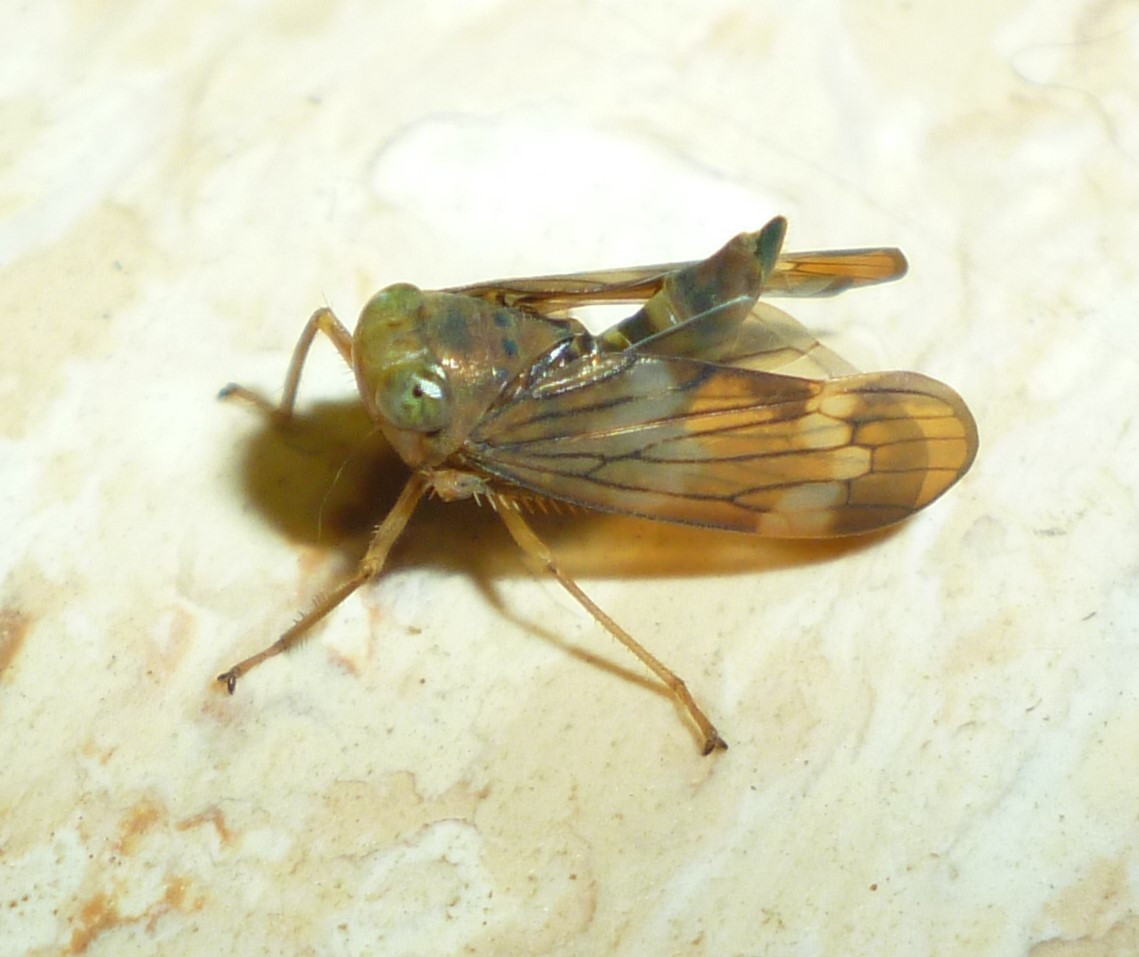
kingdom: Animalia
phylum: Arthropoda
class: Insecta
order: Hemiptera
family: Cicadellidae
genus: Jikradia
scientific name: Jikradia olitoria
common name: Coppery leafhopper
